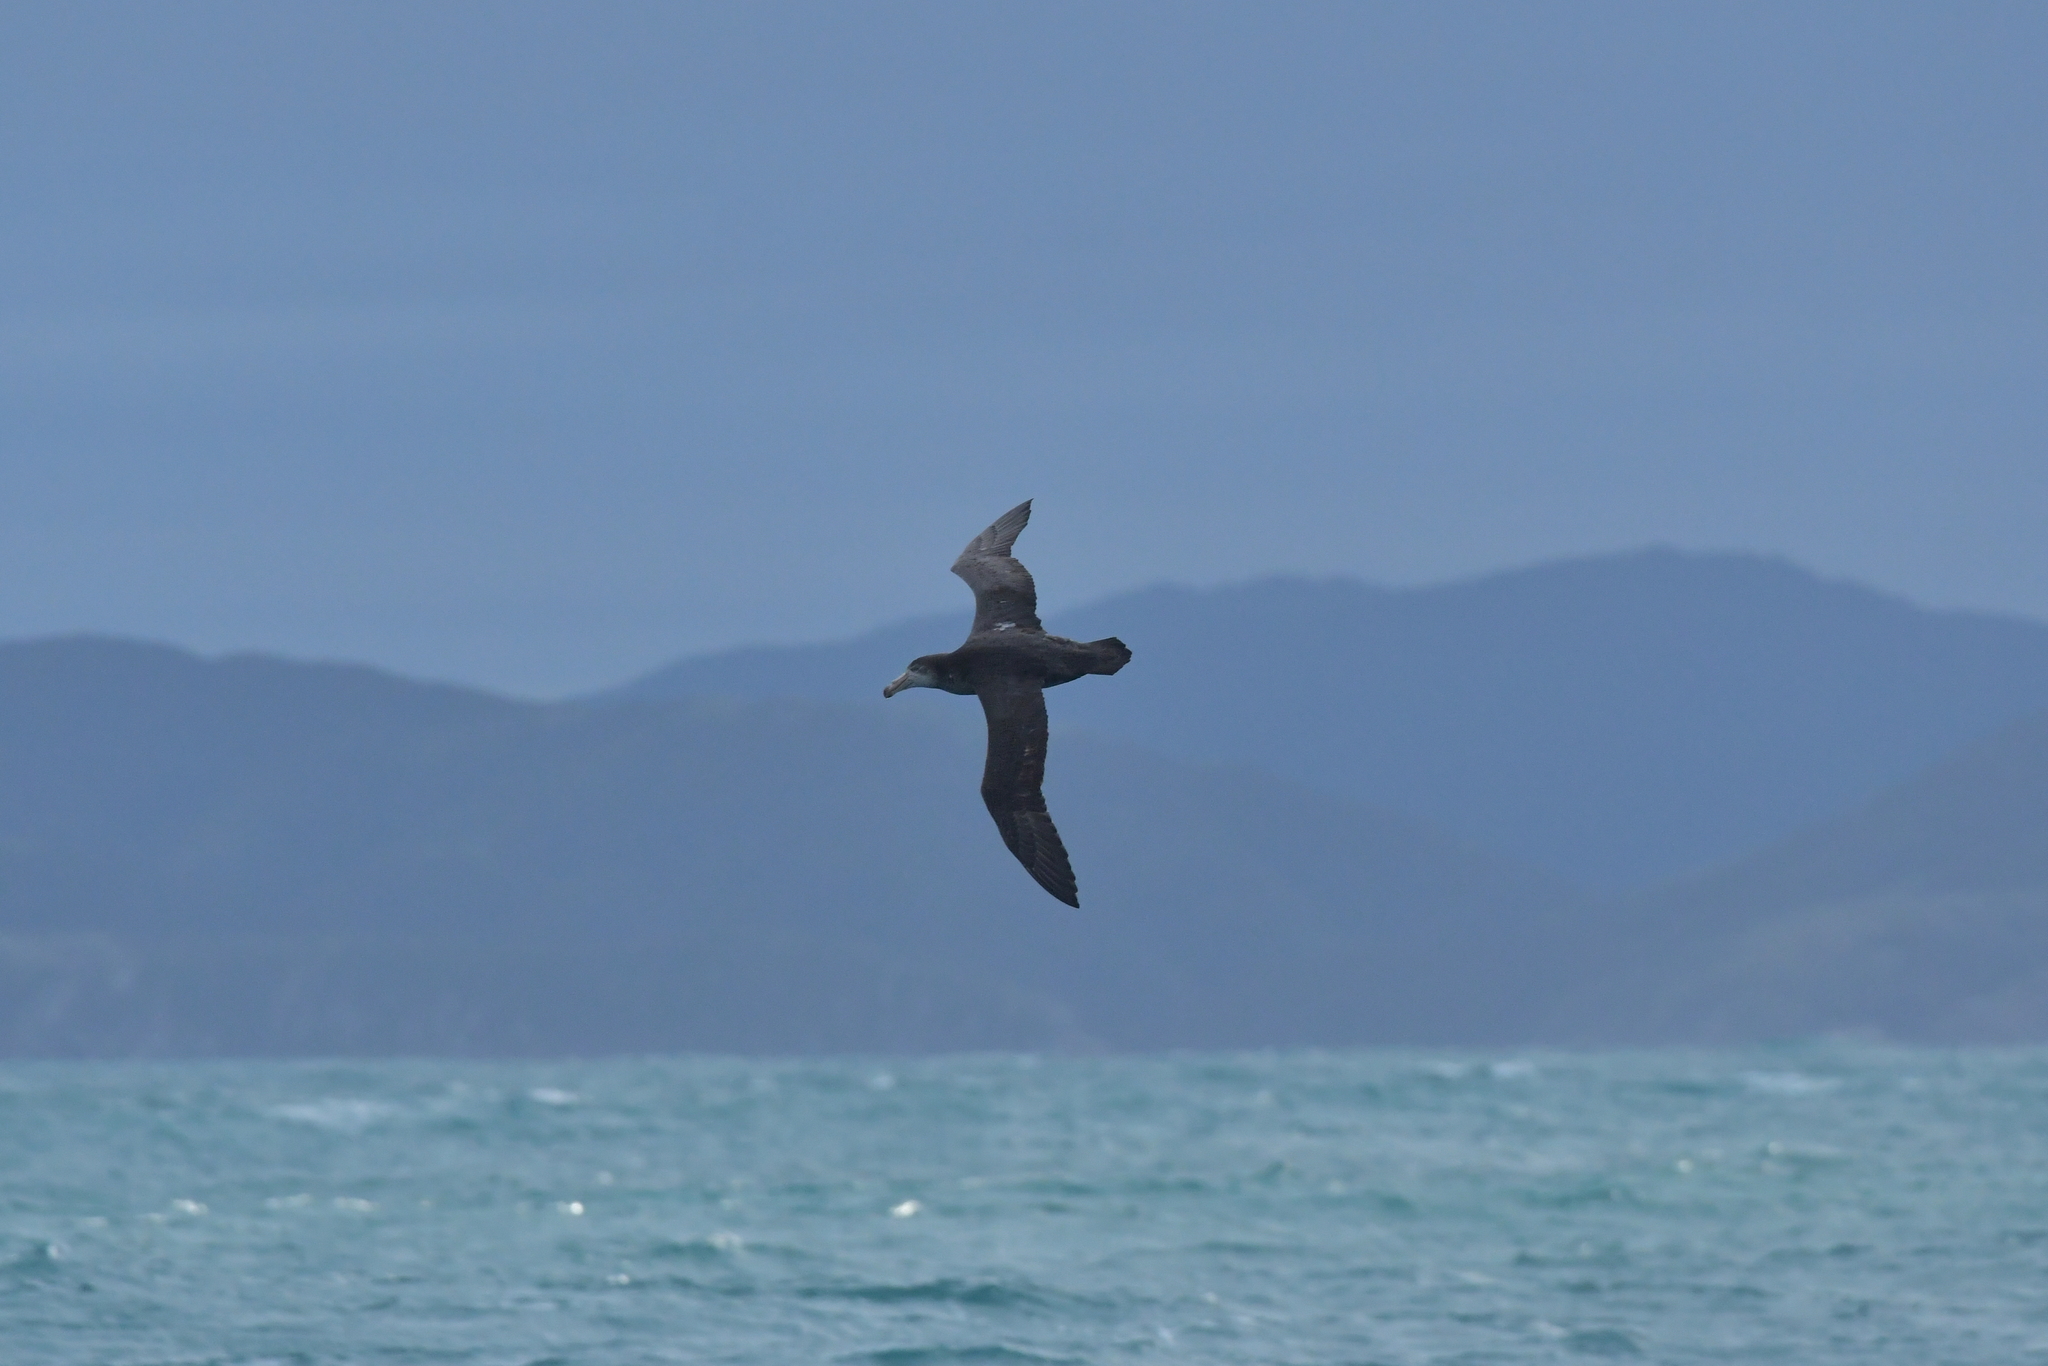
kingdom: Animalia
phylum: Chordata
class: Aves
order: Procellariiformes
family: Procellariidae
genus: Macronectes
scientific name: Macronectes halli
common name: Northern giant petrel
